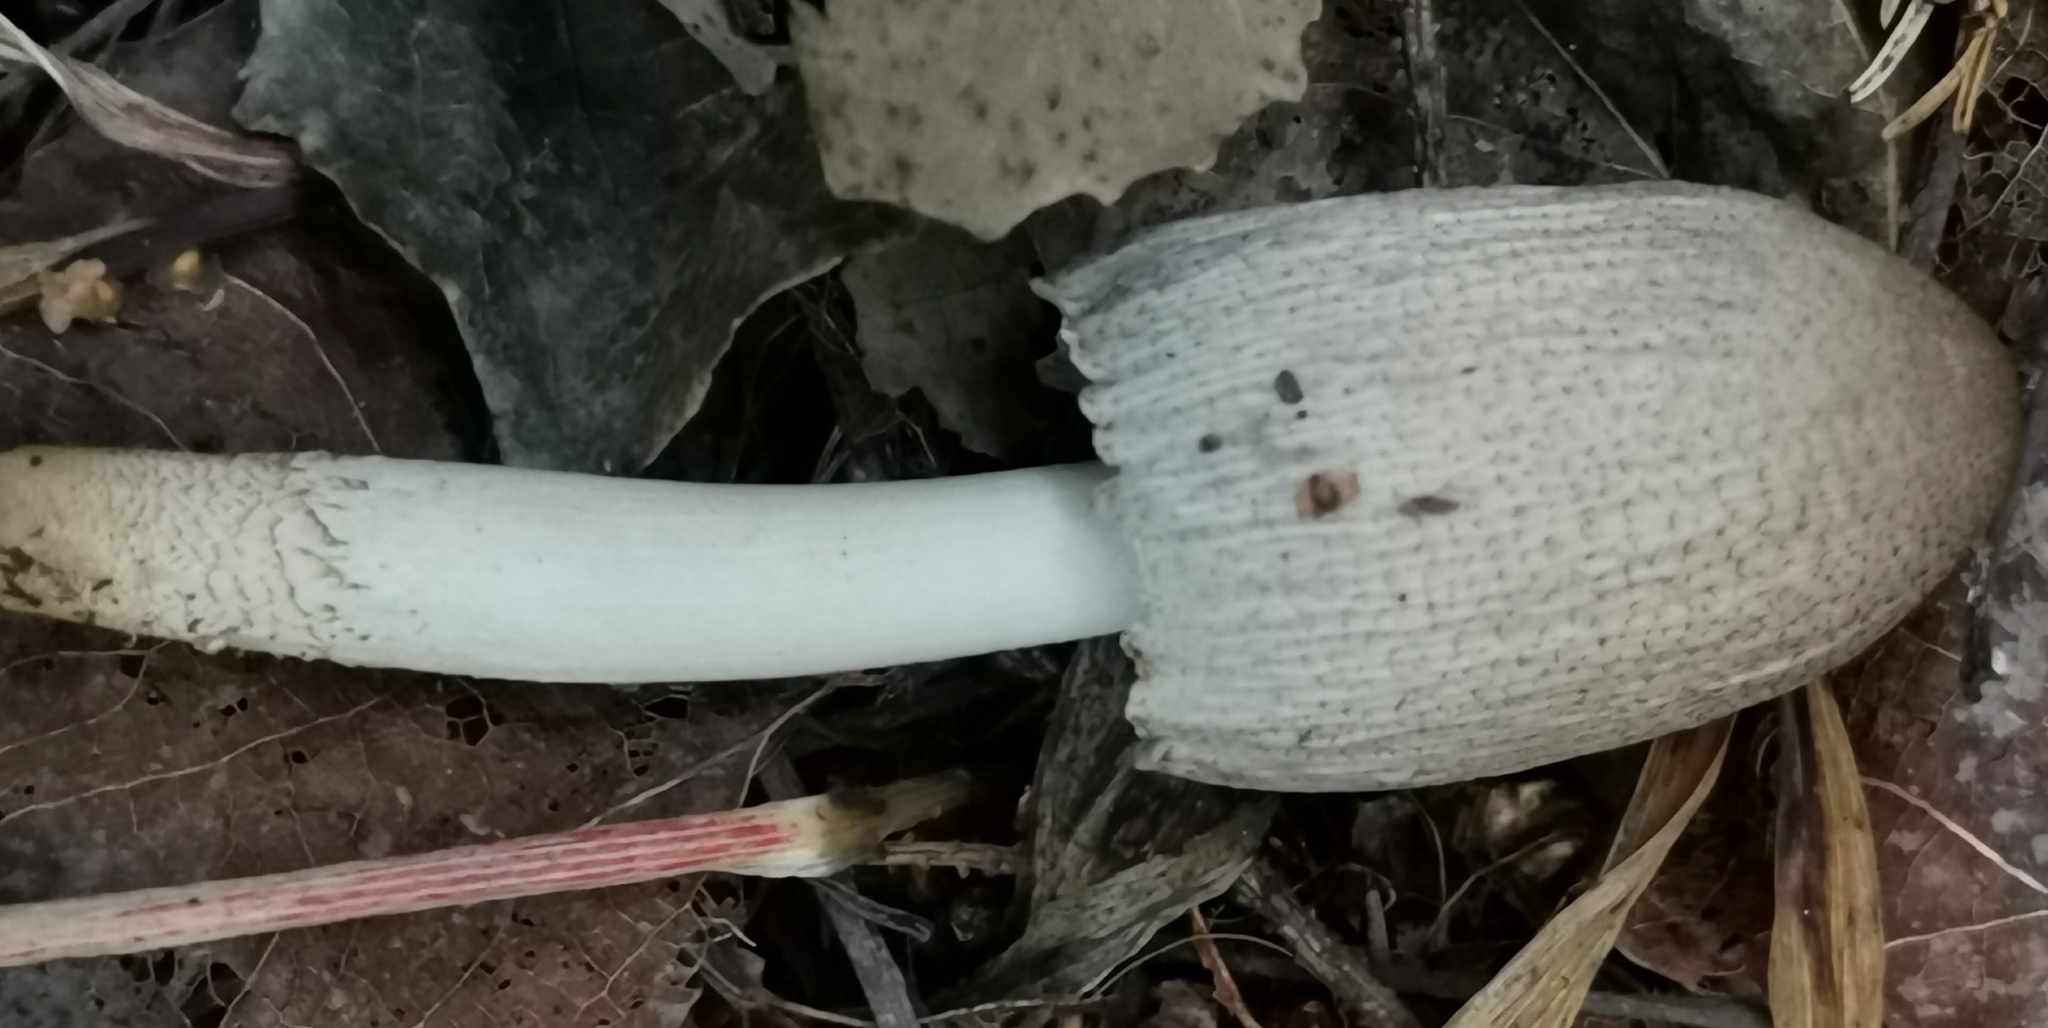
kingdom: Fungi
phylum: Basidiomycota
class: Agaricomycetes
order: Agaricales
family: Psathyrellaceae
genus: Coprinopsis
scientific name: Coprinopsis atramentaria
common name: Common ink-cap
